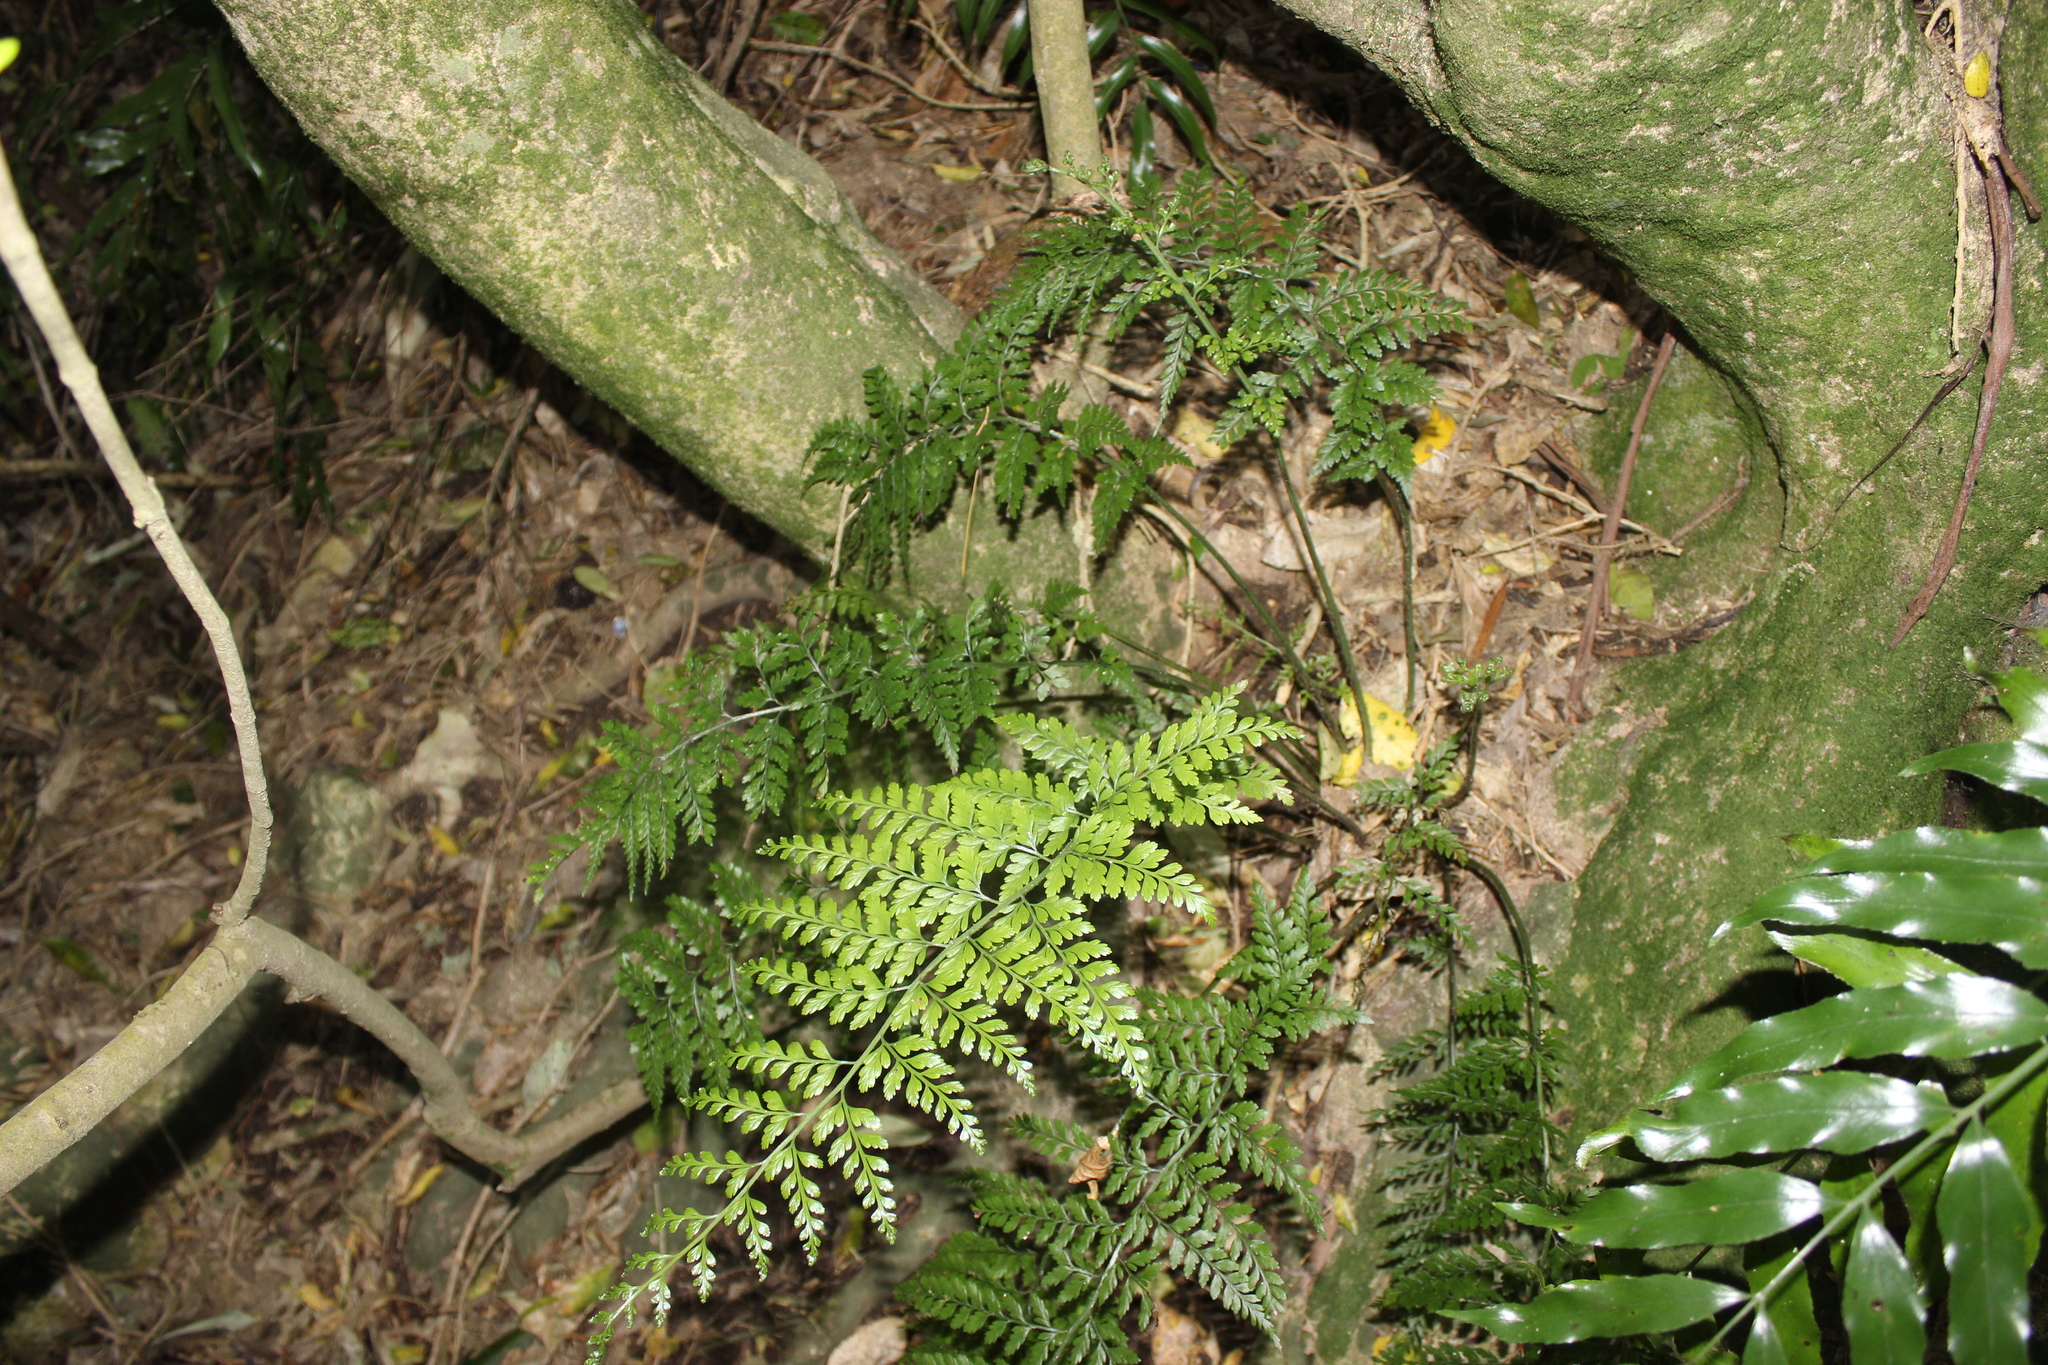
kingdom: Plantae
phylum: Tracheophyta
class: Polypodiopsida
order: Polypodiales
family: Aspleniaceae
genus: Asplenium
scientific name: Asplenium
